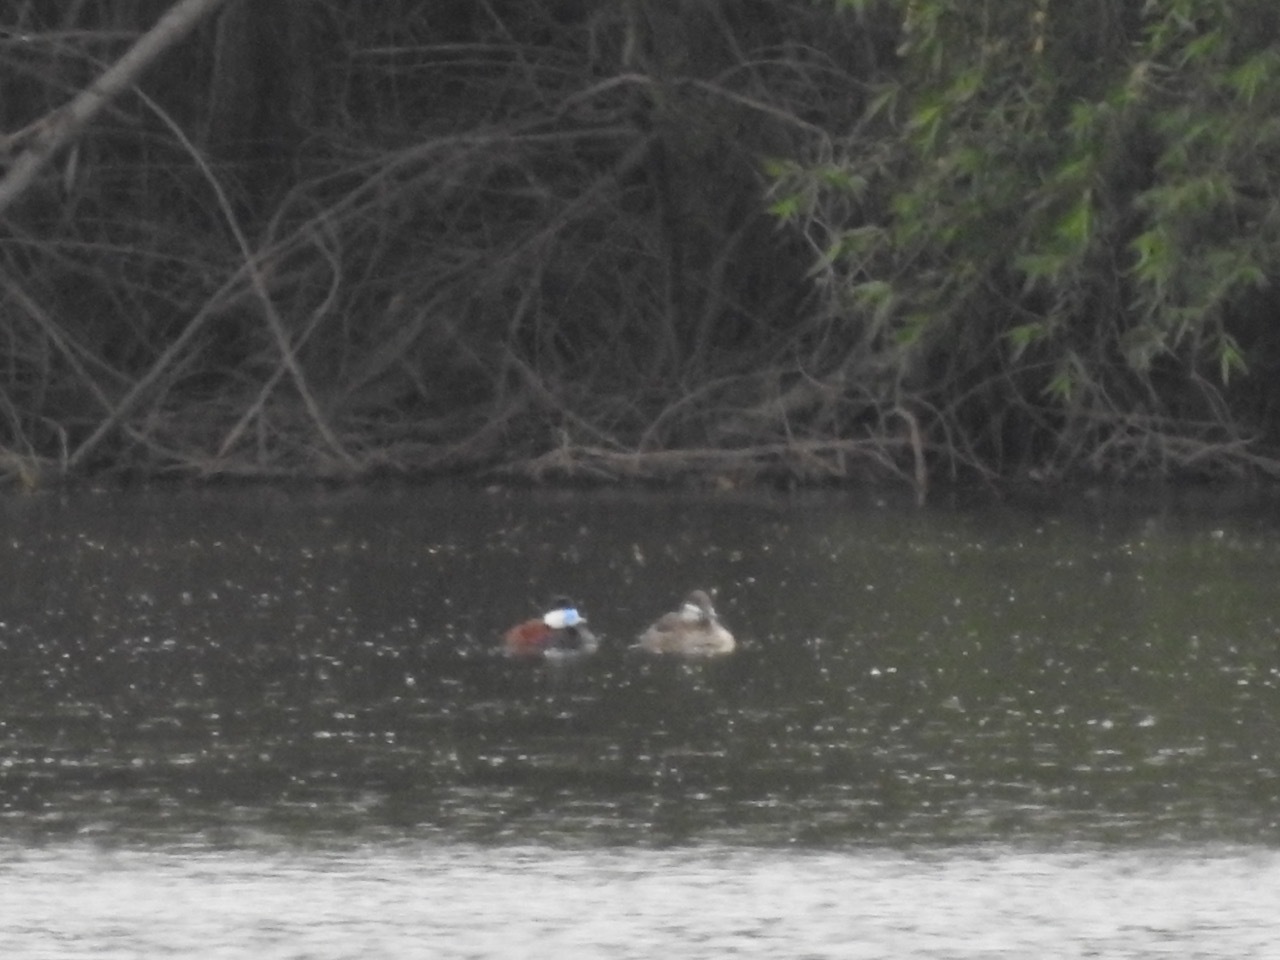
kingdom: Animalia
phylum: Chordata
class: Aves
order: Anseriformes
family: Anatidae
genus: Oxyura
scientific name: Oxyura jamaicensis
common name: Ruddy duck
